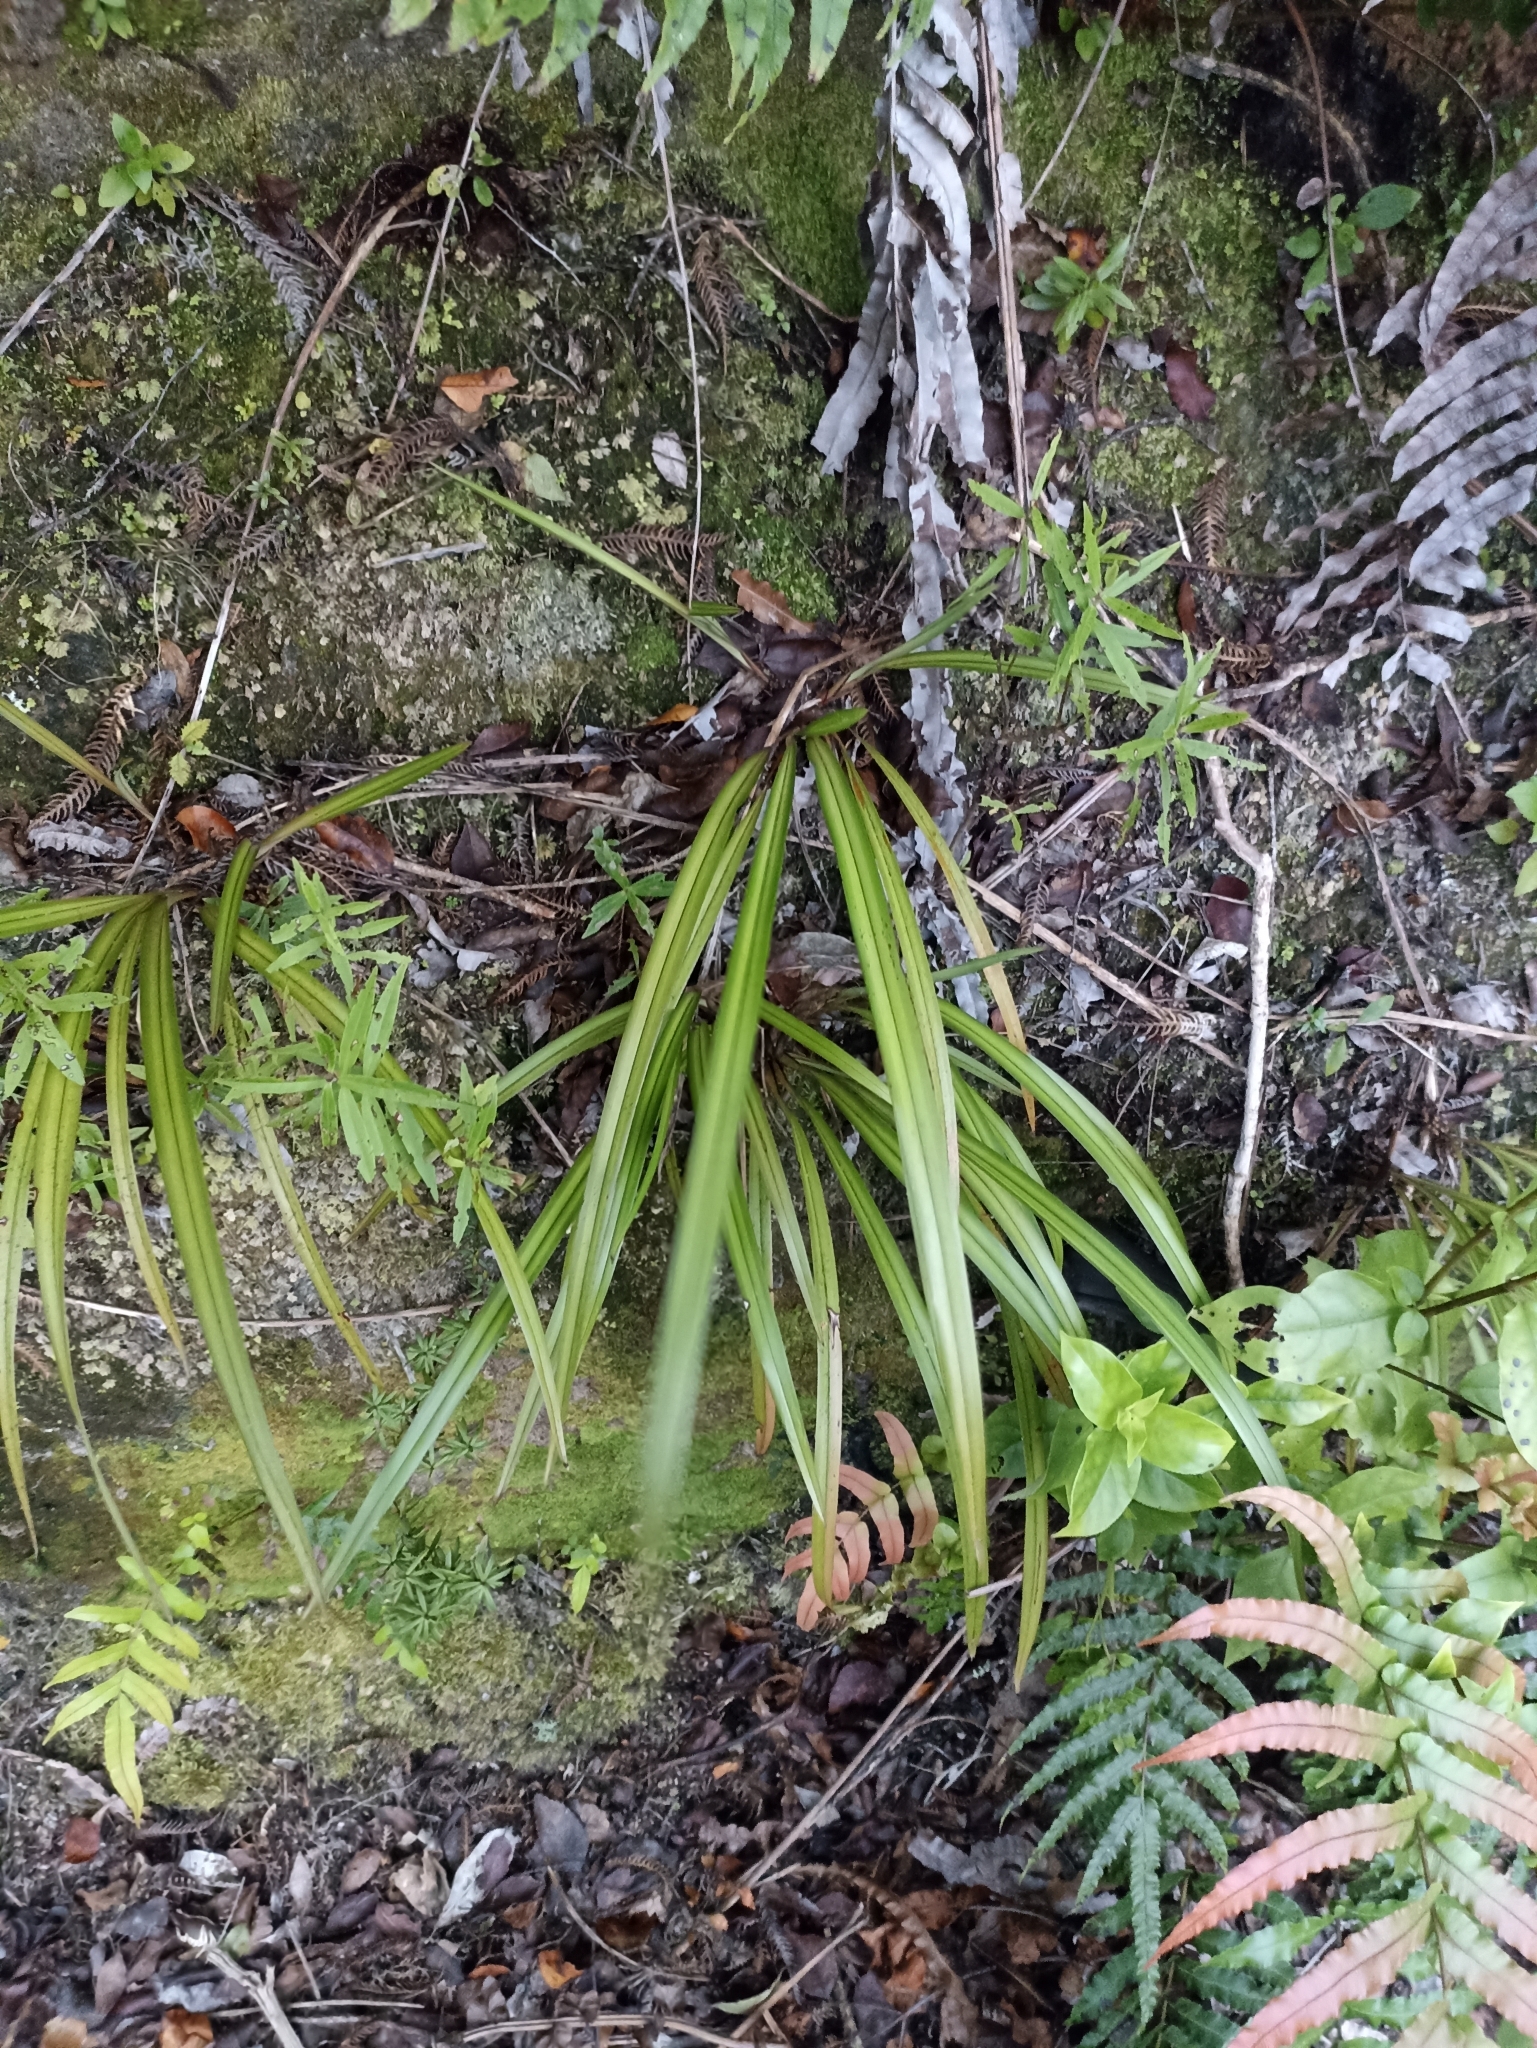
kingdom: Plantae
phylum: Tracheophyta
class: Liliopsida
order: Asparagales
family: Asphodelaceae
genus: Dianella
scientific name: Dianella nigra
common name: New zealand-blueberry
